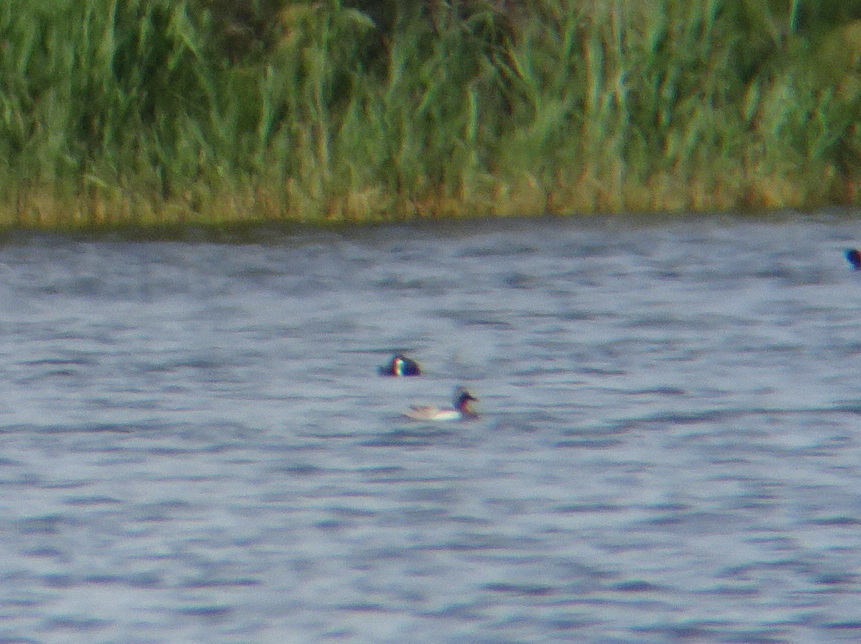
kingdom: Animalia
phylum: Chordata
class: Aves
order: Anseriformes
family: Anatidae
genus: Spatula
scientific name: Spatula querquedula
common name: Garganey
